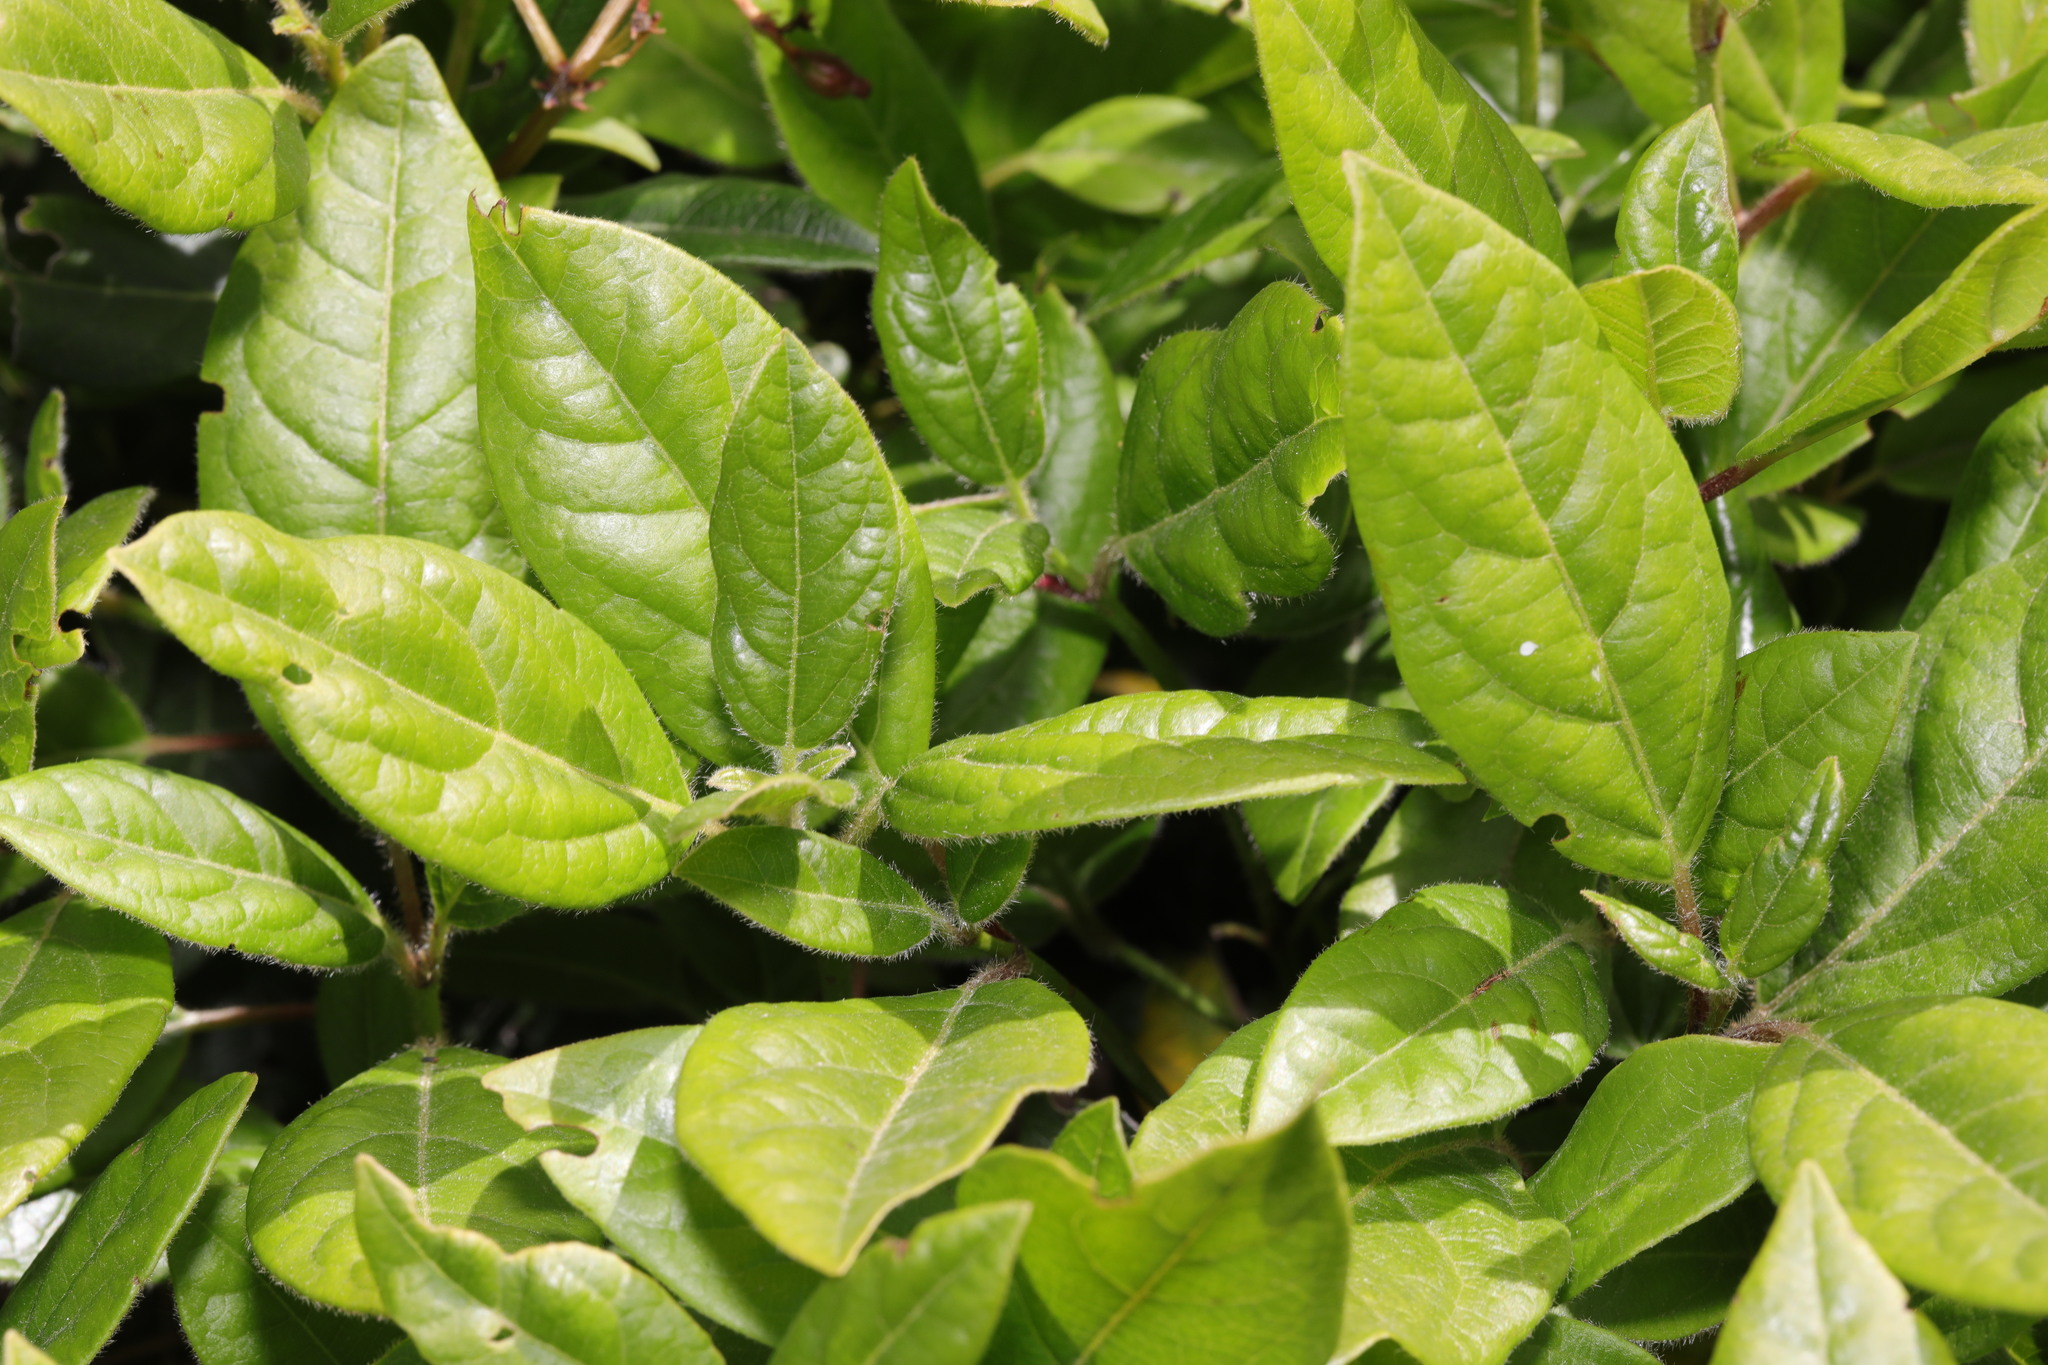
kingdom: Plantae
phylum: Tracheophyta
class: Magnoliopsida
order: Dipsacales
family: Viburnaceae
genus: Viburnum
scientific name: Viburnum tinus
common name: Laurustinus
